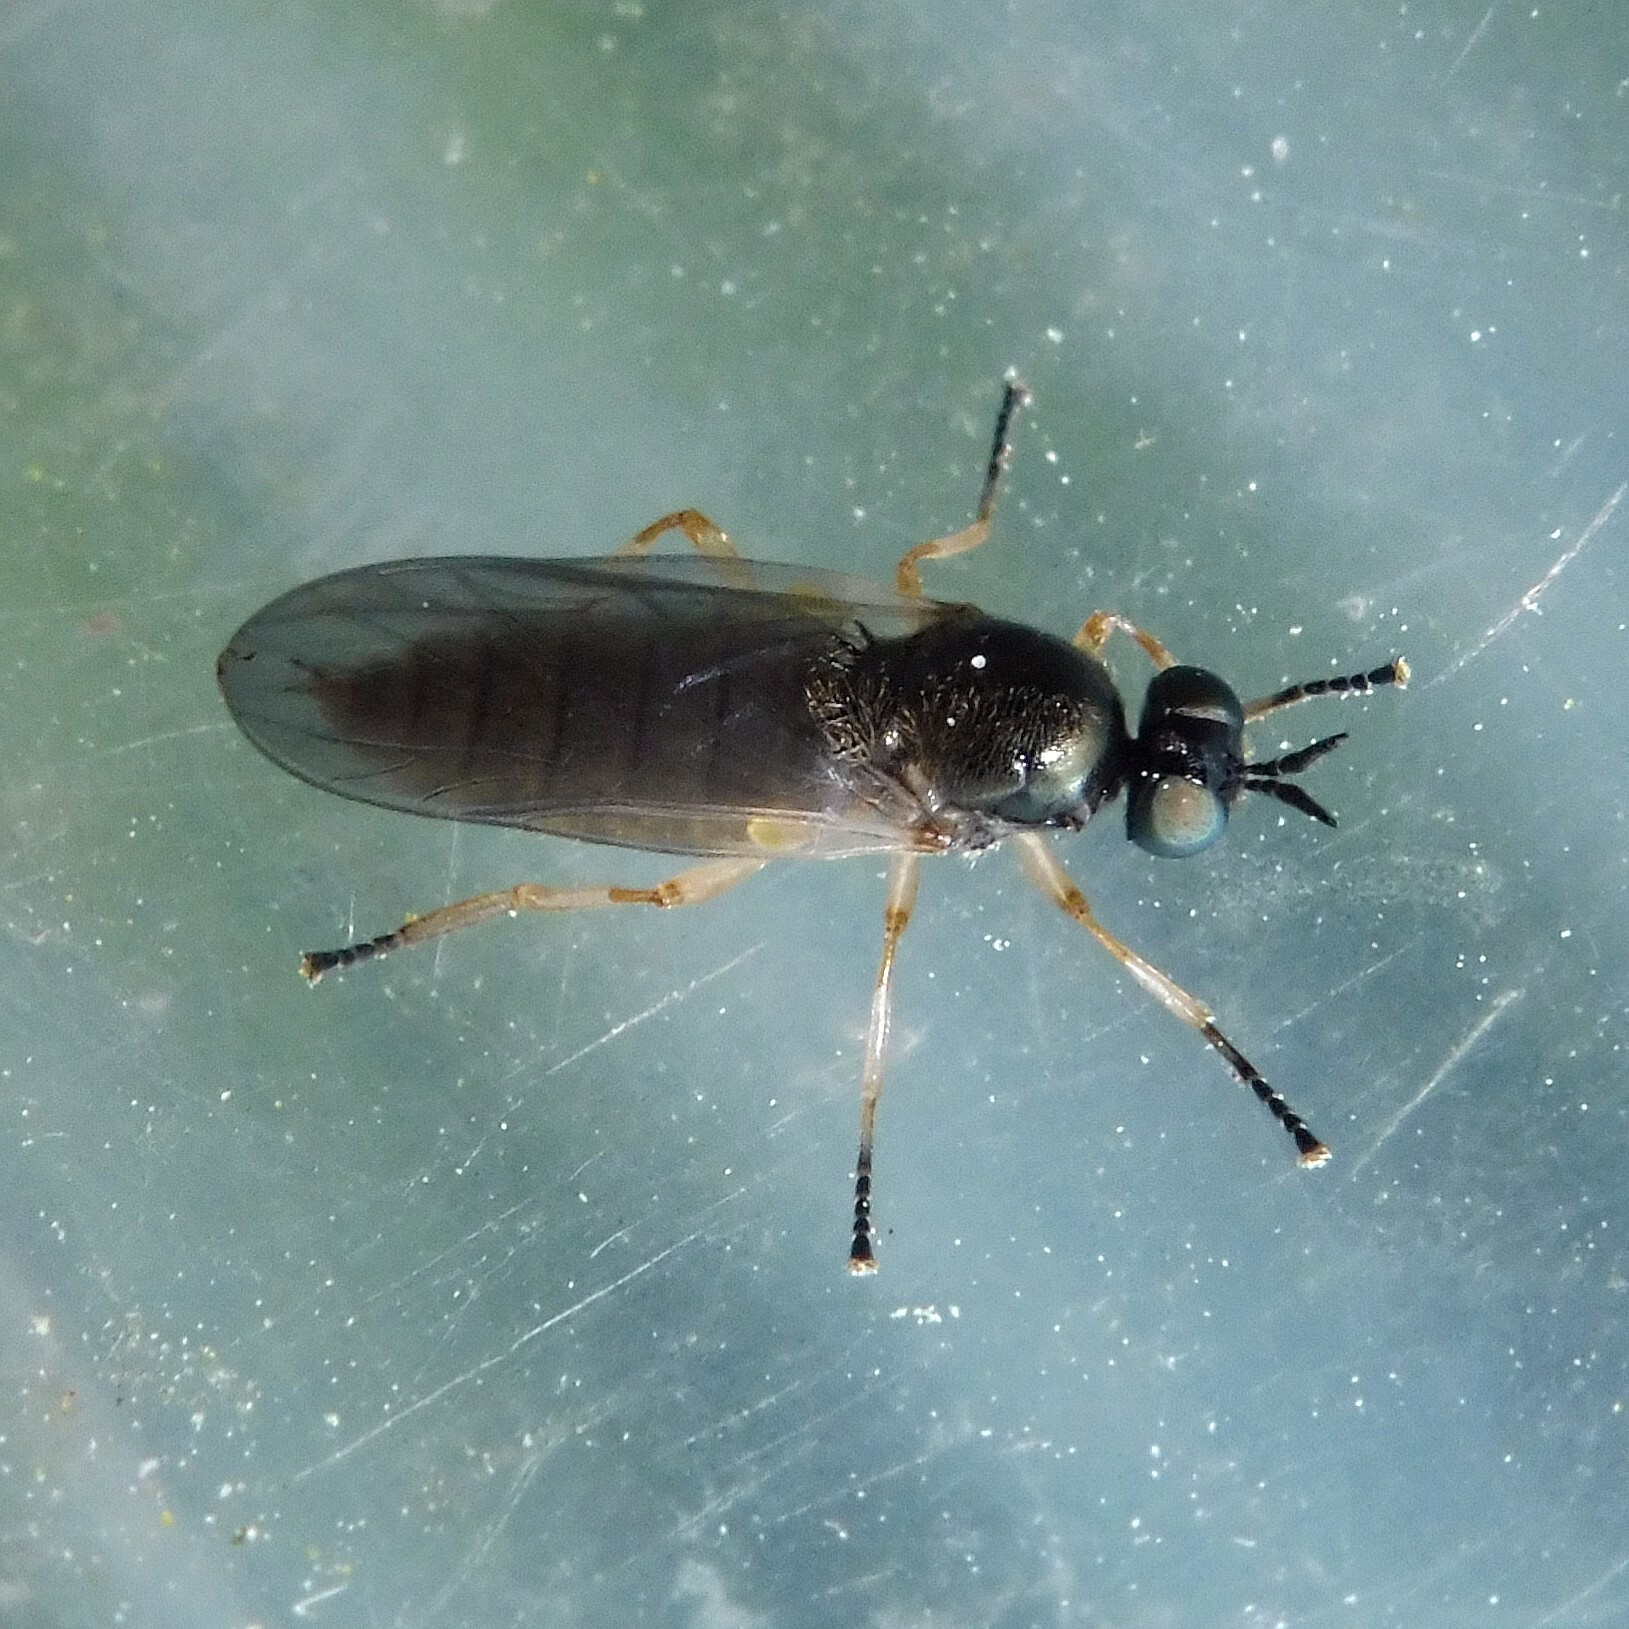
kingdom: Animalia
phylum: Arthropoda
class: Insecta
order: Diptera
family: Stratiomyidae
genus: Beris
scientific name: Beris chalybata
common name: Murky-legged black legionnaire
